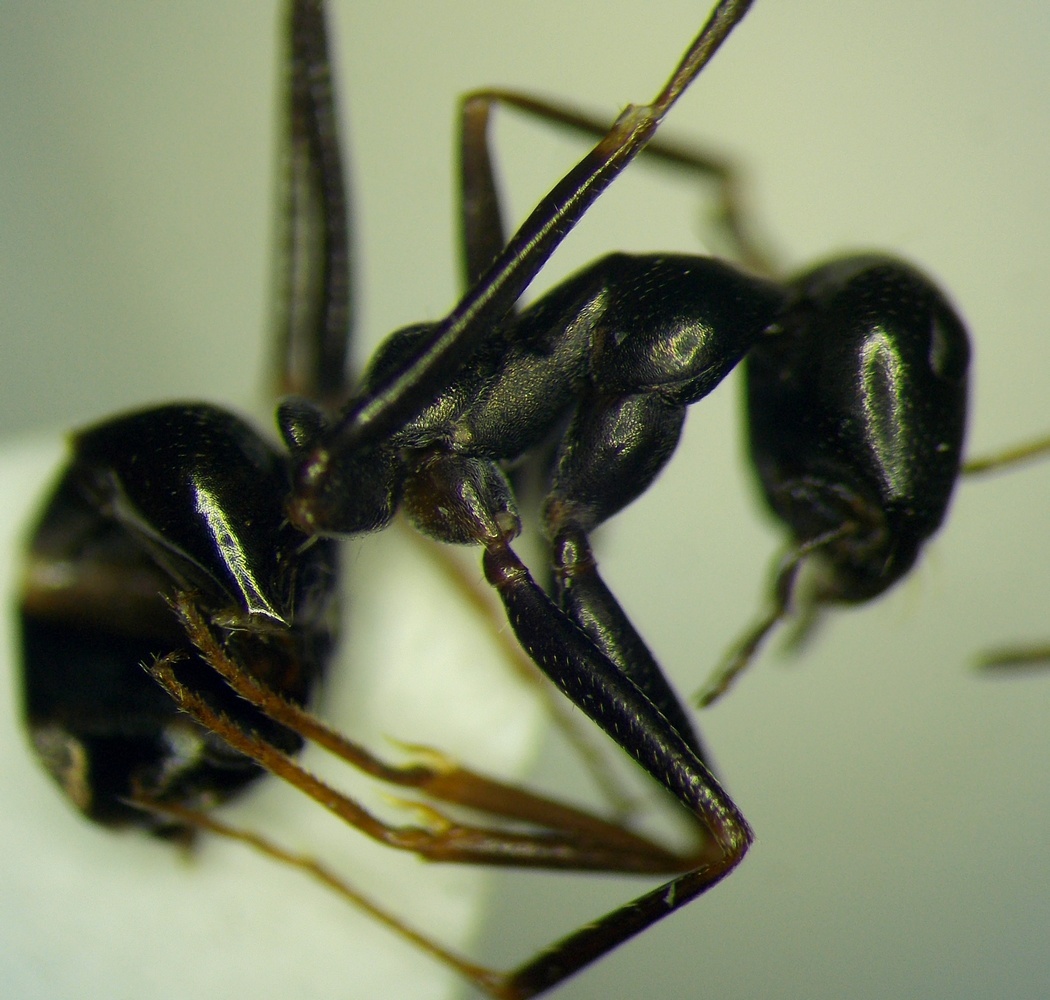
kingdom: Animalia
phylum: Arthropoda
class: Insecta
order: Hymenoptera
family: Formicidae
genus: Cataglyphis
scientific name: Cataglyphis aenescens
